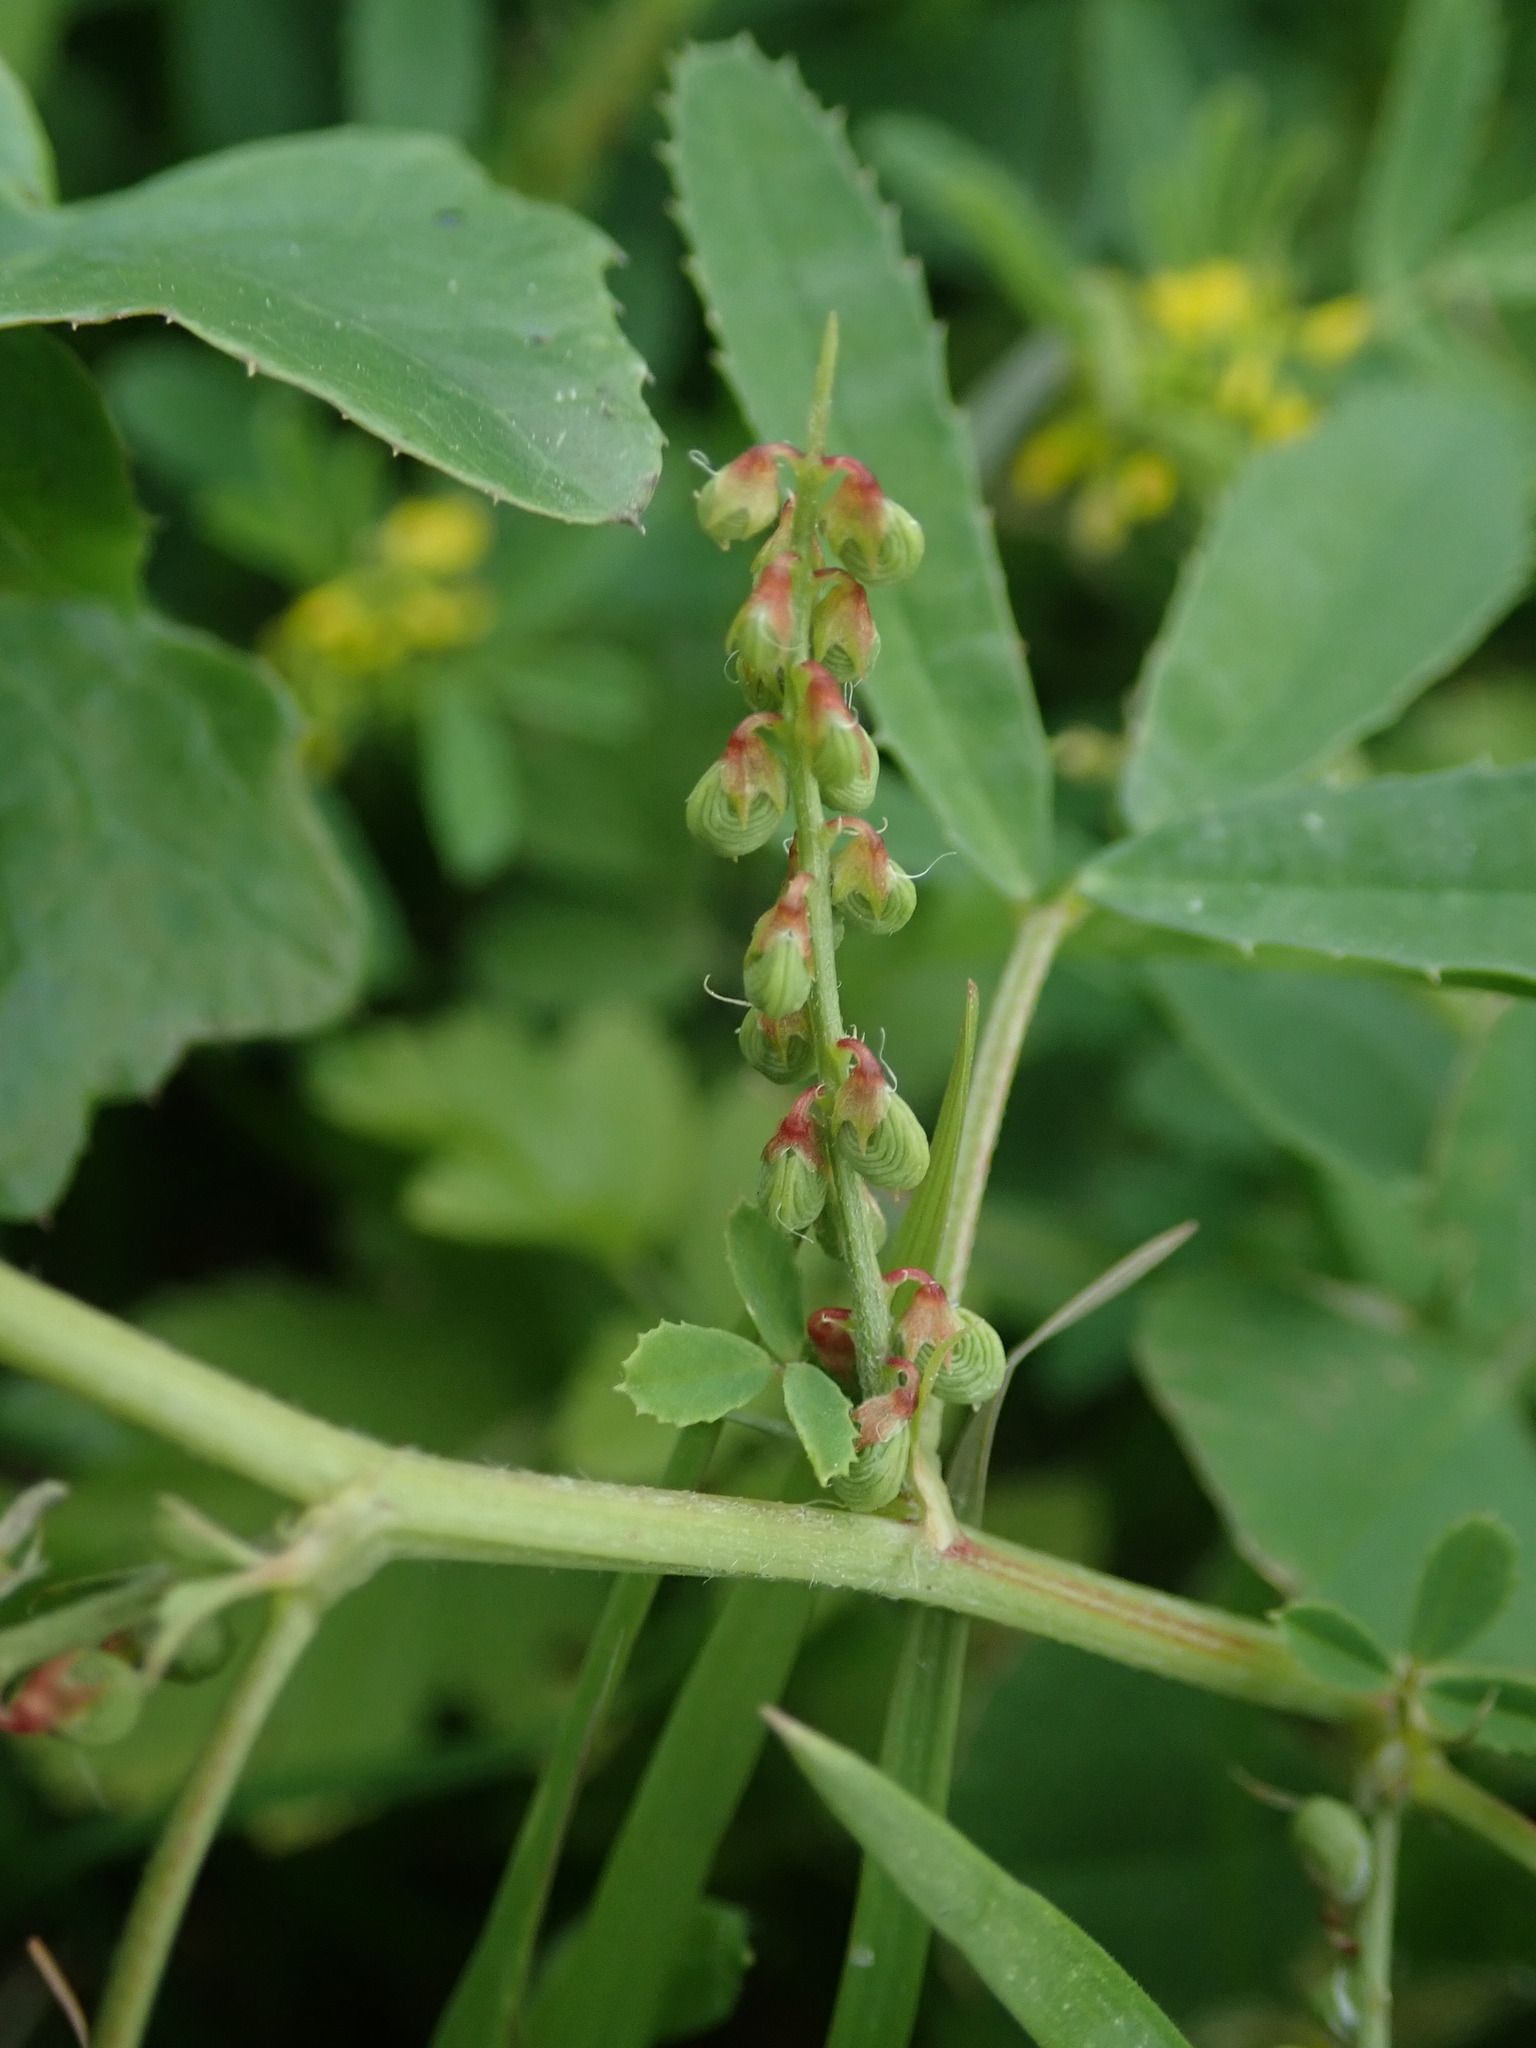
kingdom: Plantae
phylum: Tracheophyta
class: Magnoliopsida
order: Fabales
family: Fabaceae
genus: Melilotus
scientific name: Melilotus sulcatus
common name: Furrowed melilot
